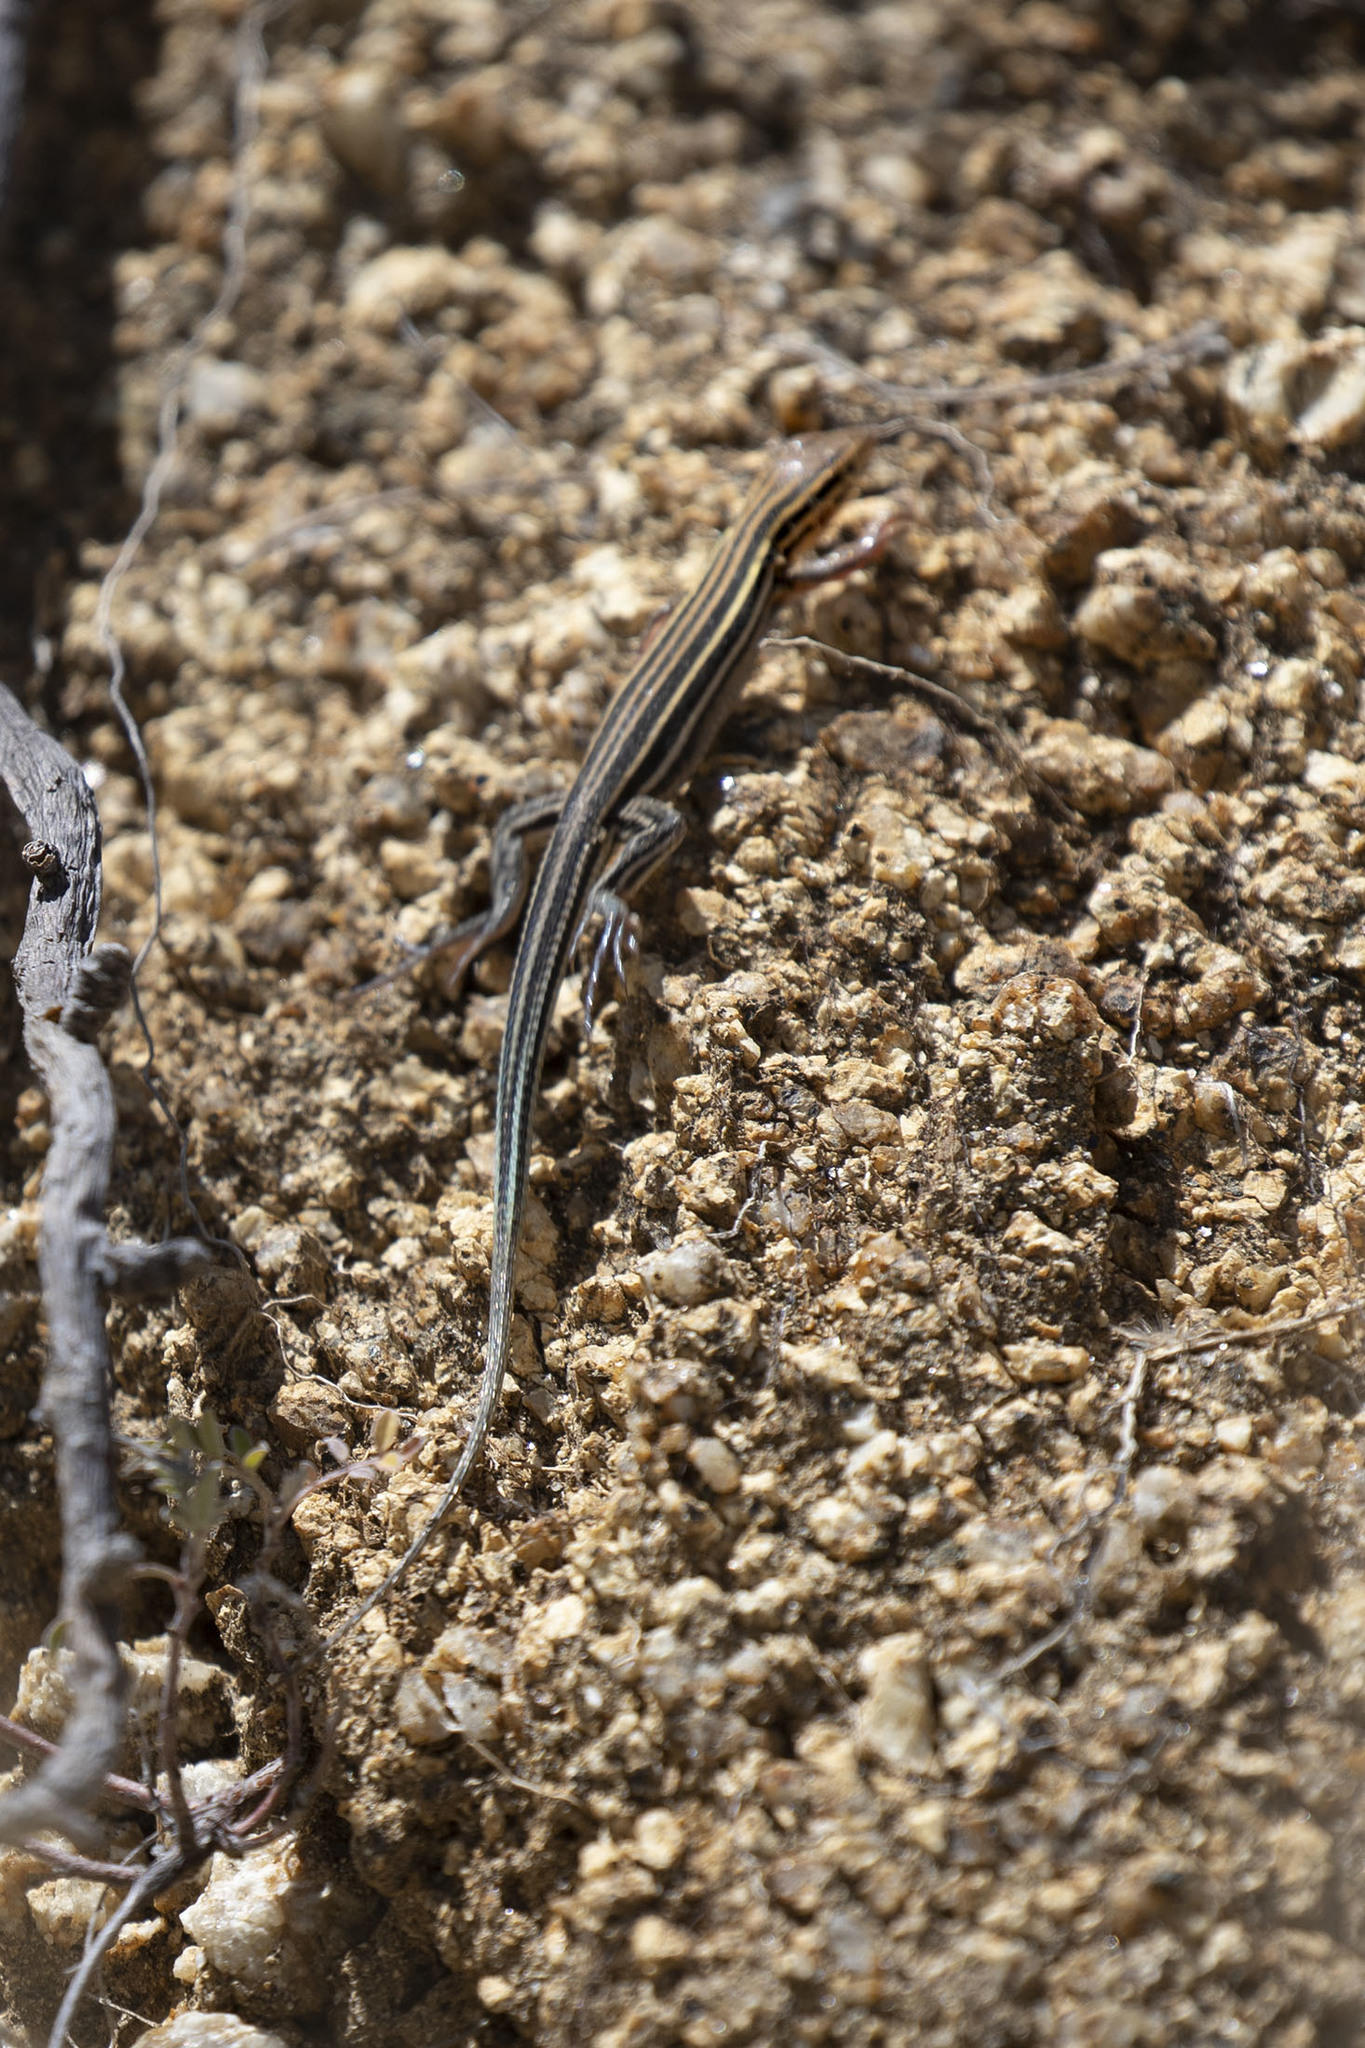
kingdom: Animalia
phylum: Chordata
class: Squamata
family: Teiidae
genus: Aspidoscelis
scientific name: Aspidoscelis hyperythrus
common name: Orange-throated race-runner
